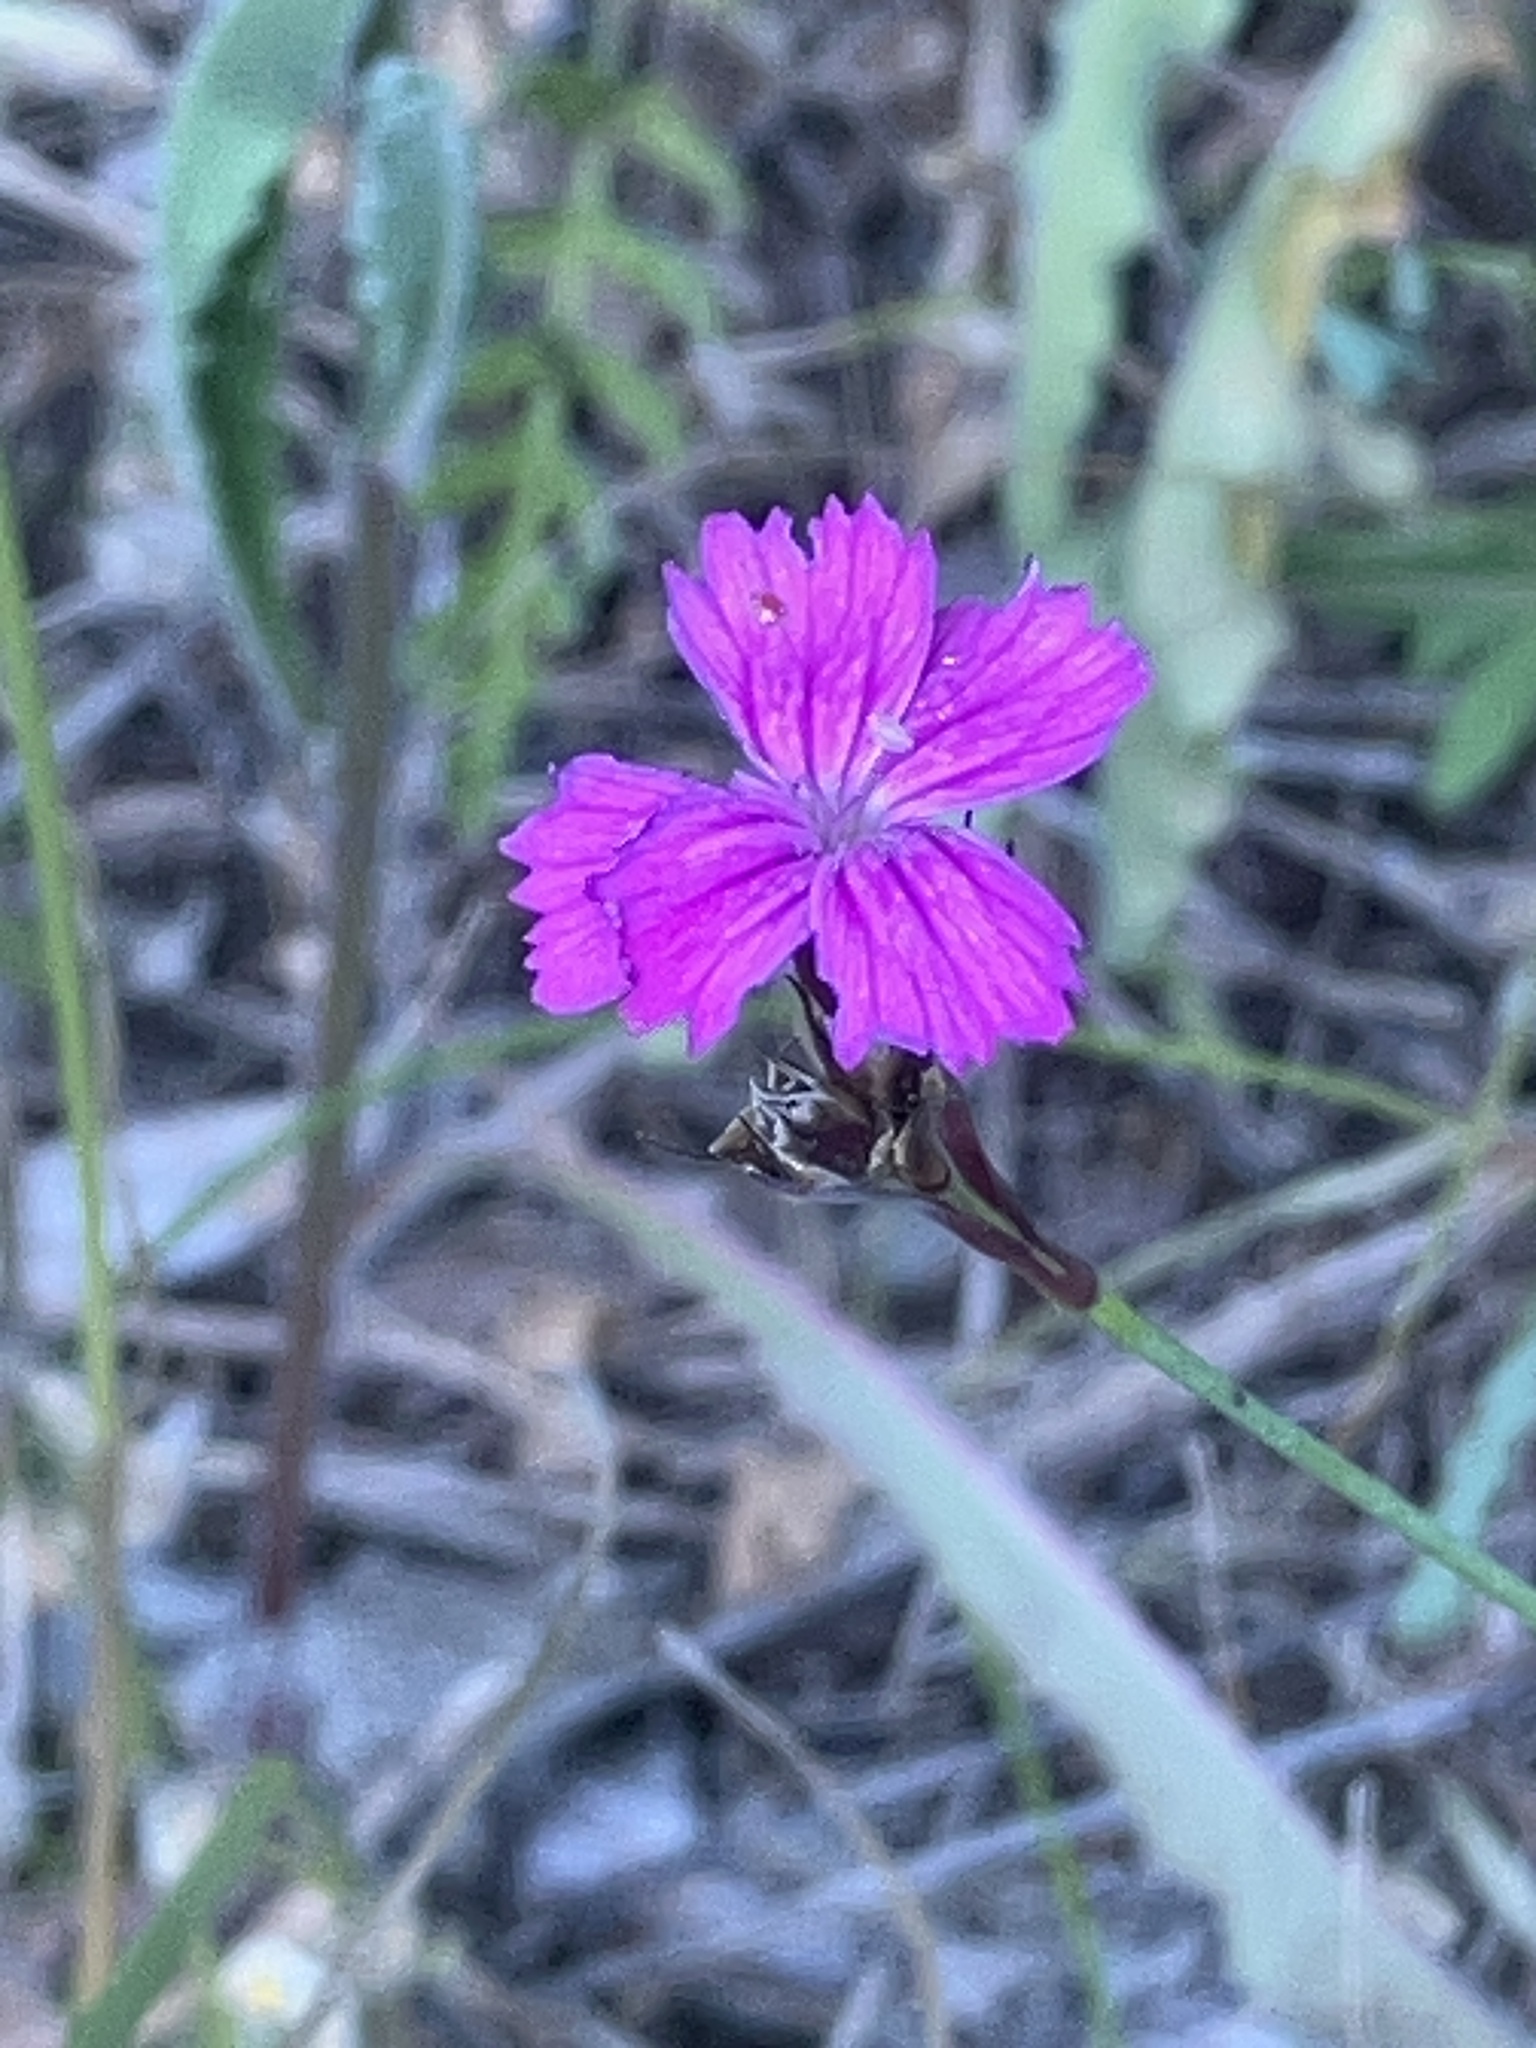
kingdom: Plantae
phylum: Tracheophyta
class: Magnoliopsida
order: Caryophyllales
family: Caryophyllaceae
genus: Dianthus
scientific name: Dianthus carthusianorum
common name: Carthusian pink
